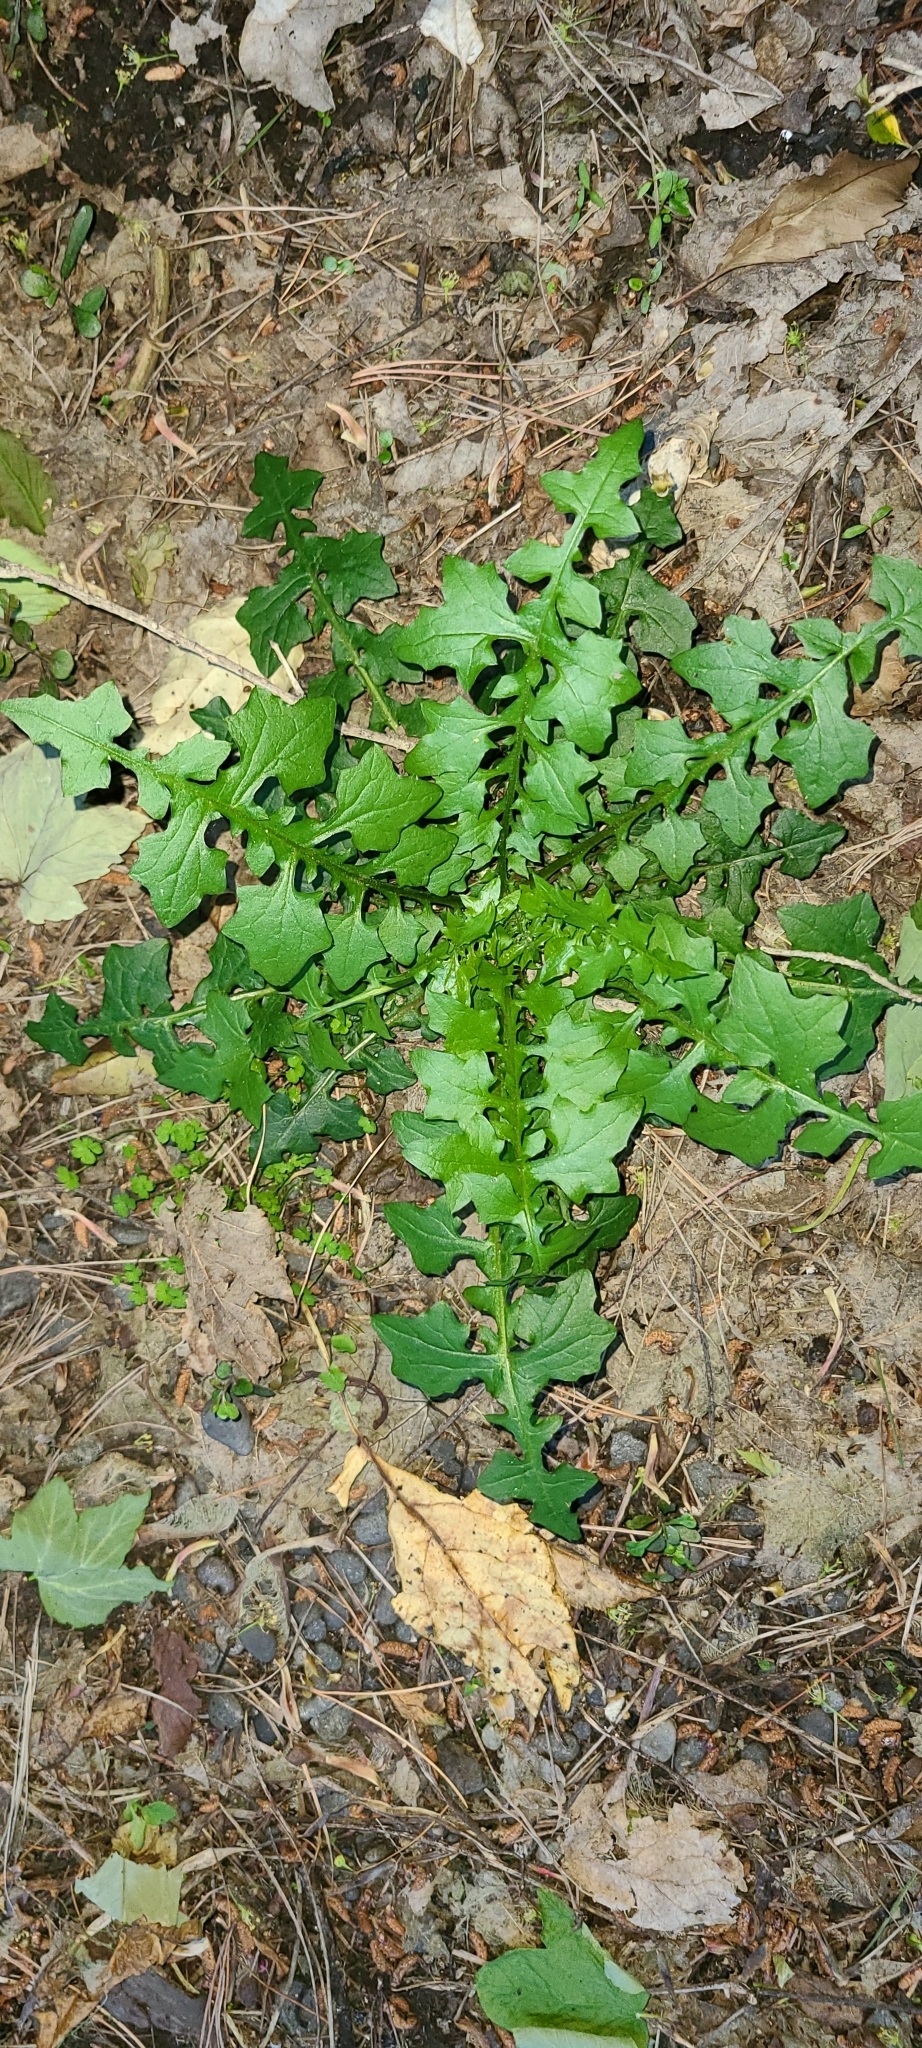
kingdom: Plantae
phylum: Tracheophyta
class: Magnoliopsida
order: Asterales
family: Asteraceae
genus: Mycelis
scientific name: Mycelis muralis
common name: Wall lettuce
